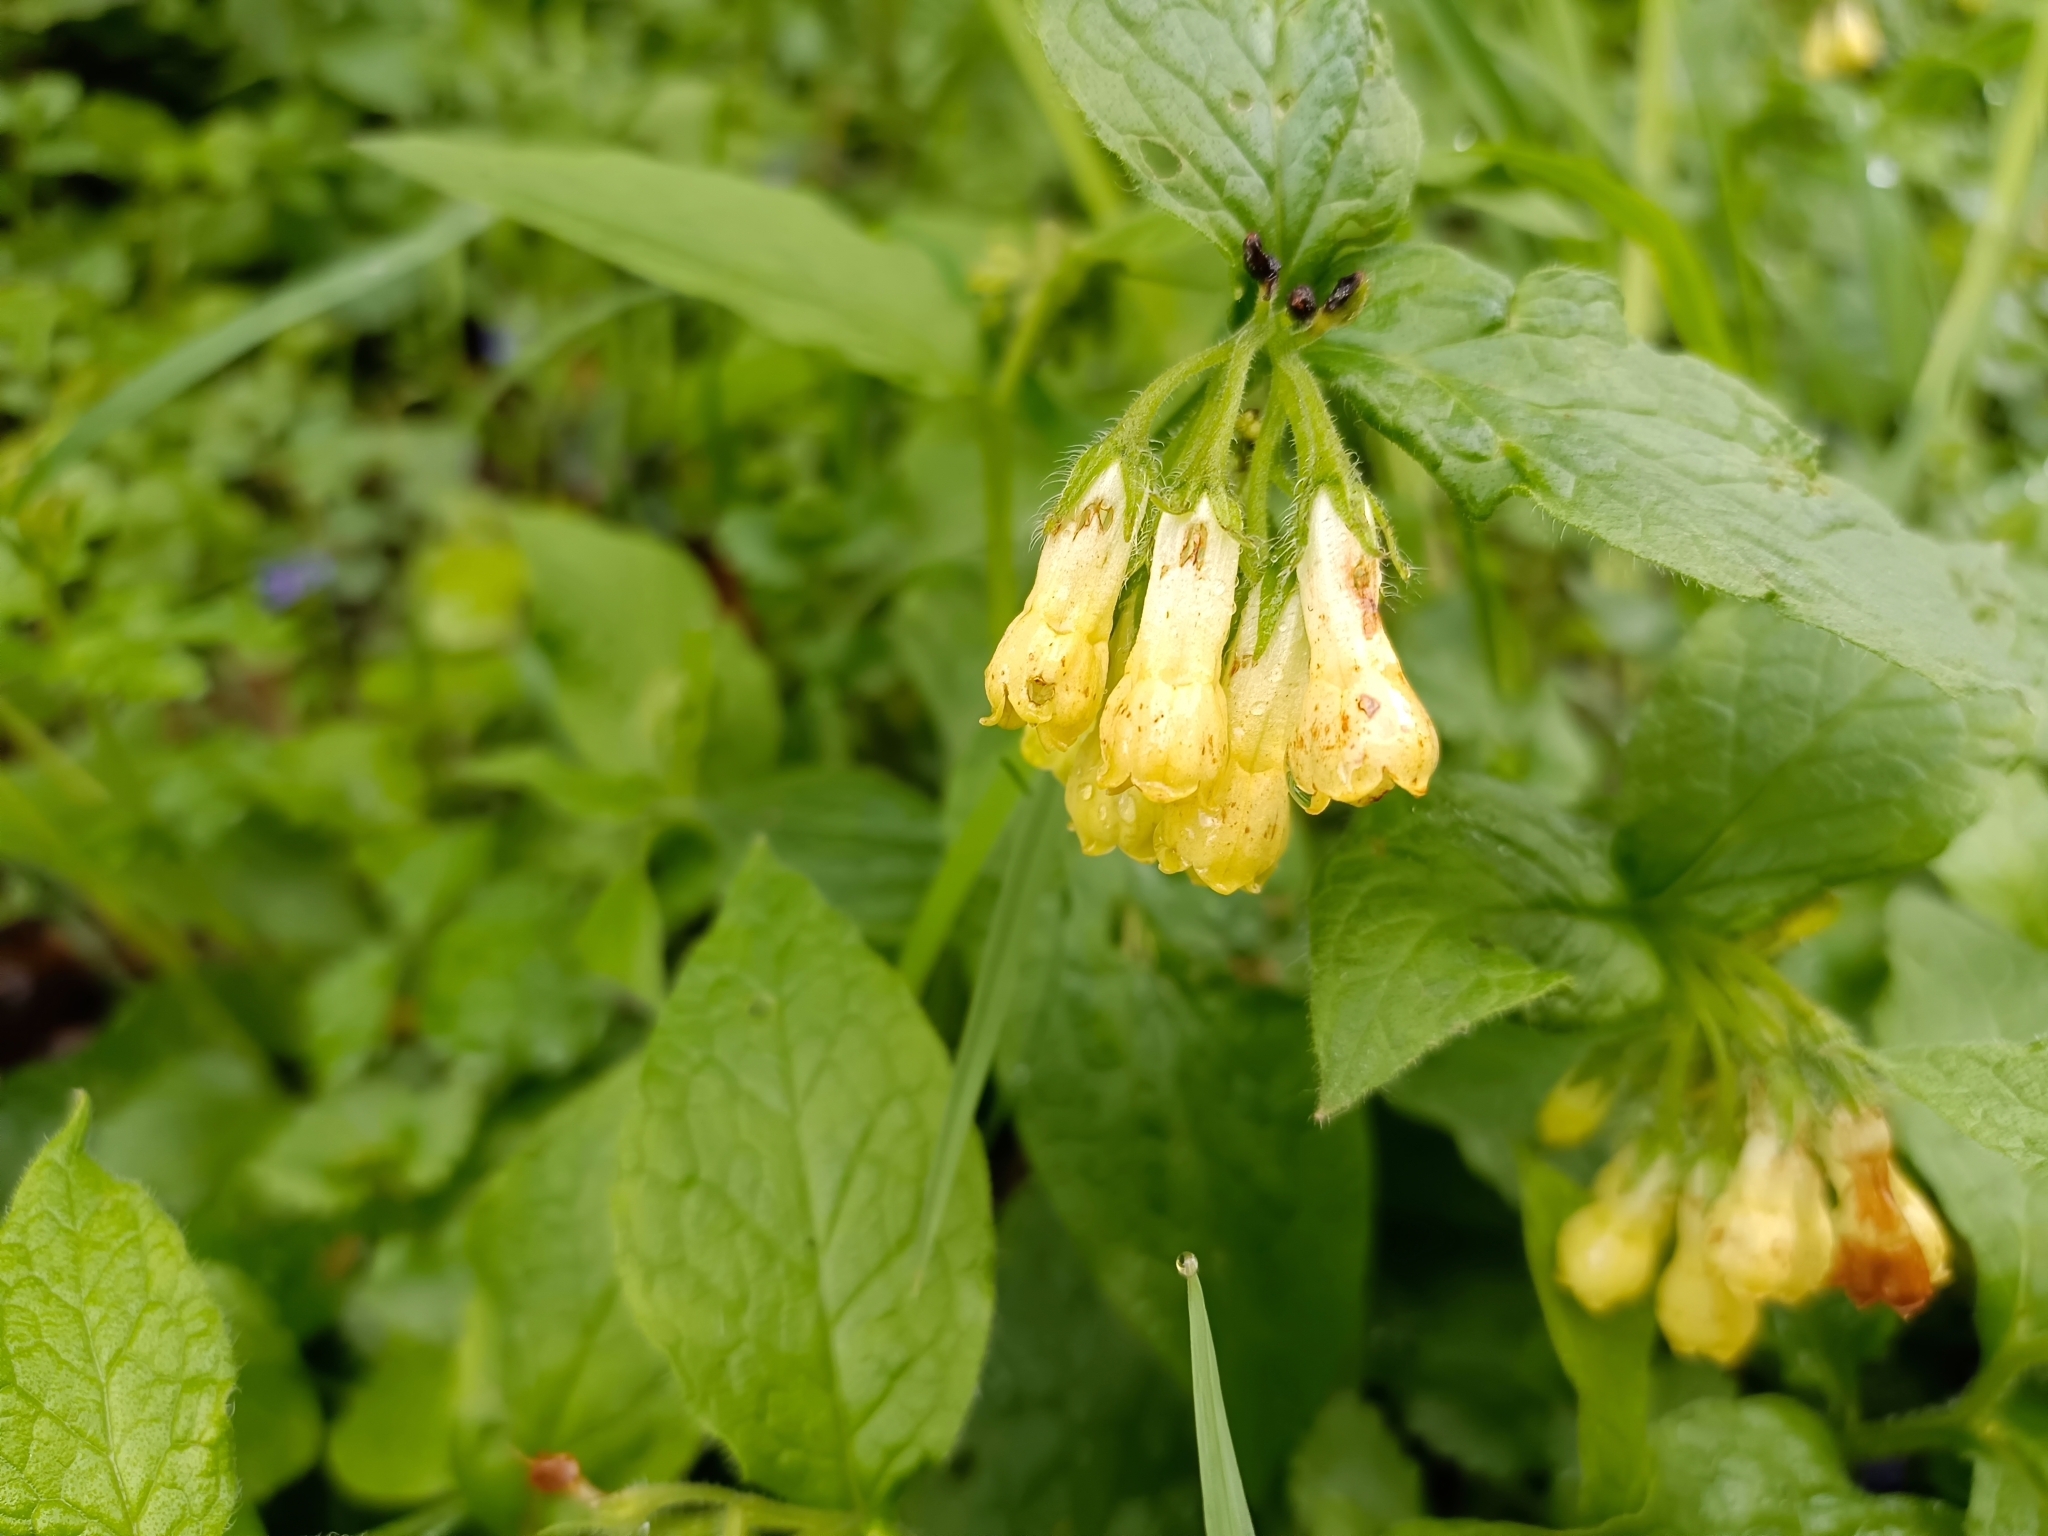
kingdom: Plantae
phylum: Tracheophyta
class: Magnoliopsida
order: Boraginales
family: Boraginaceae
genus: Symphytum
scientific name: Symphytum tuberosum
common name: Tuberous comfrey
